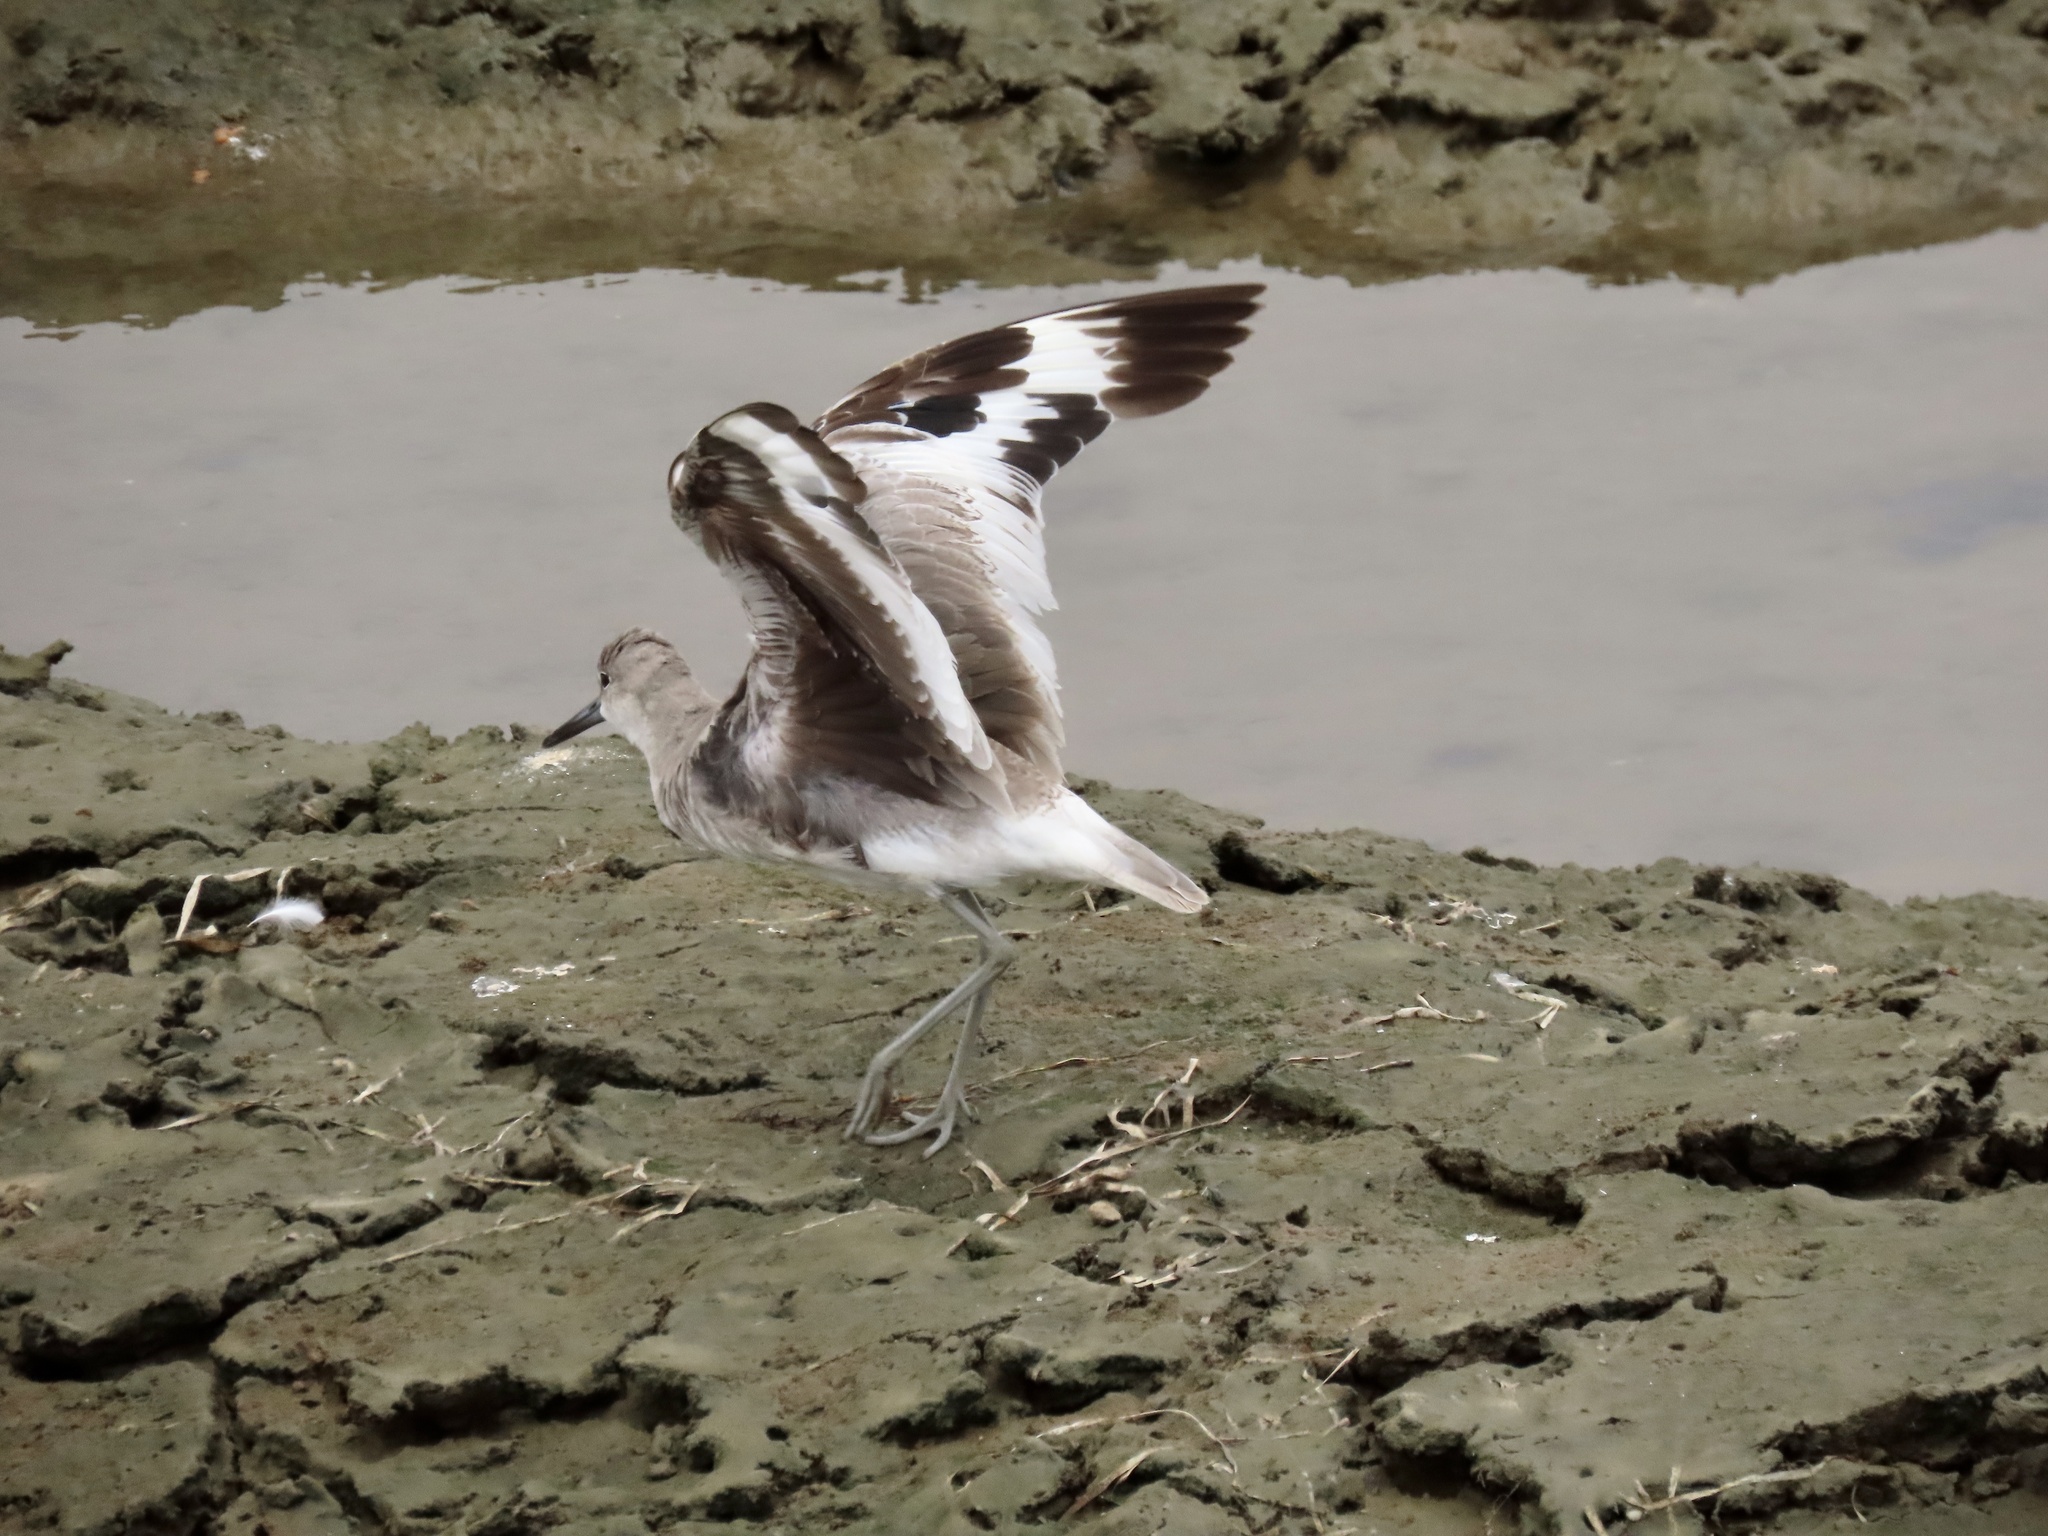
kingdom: Animalia
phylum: Chordata
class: Aves
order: Charadriiformes
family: Scolopacidae
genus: Tringa
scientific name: Tringa semipalmata
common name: Willet
